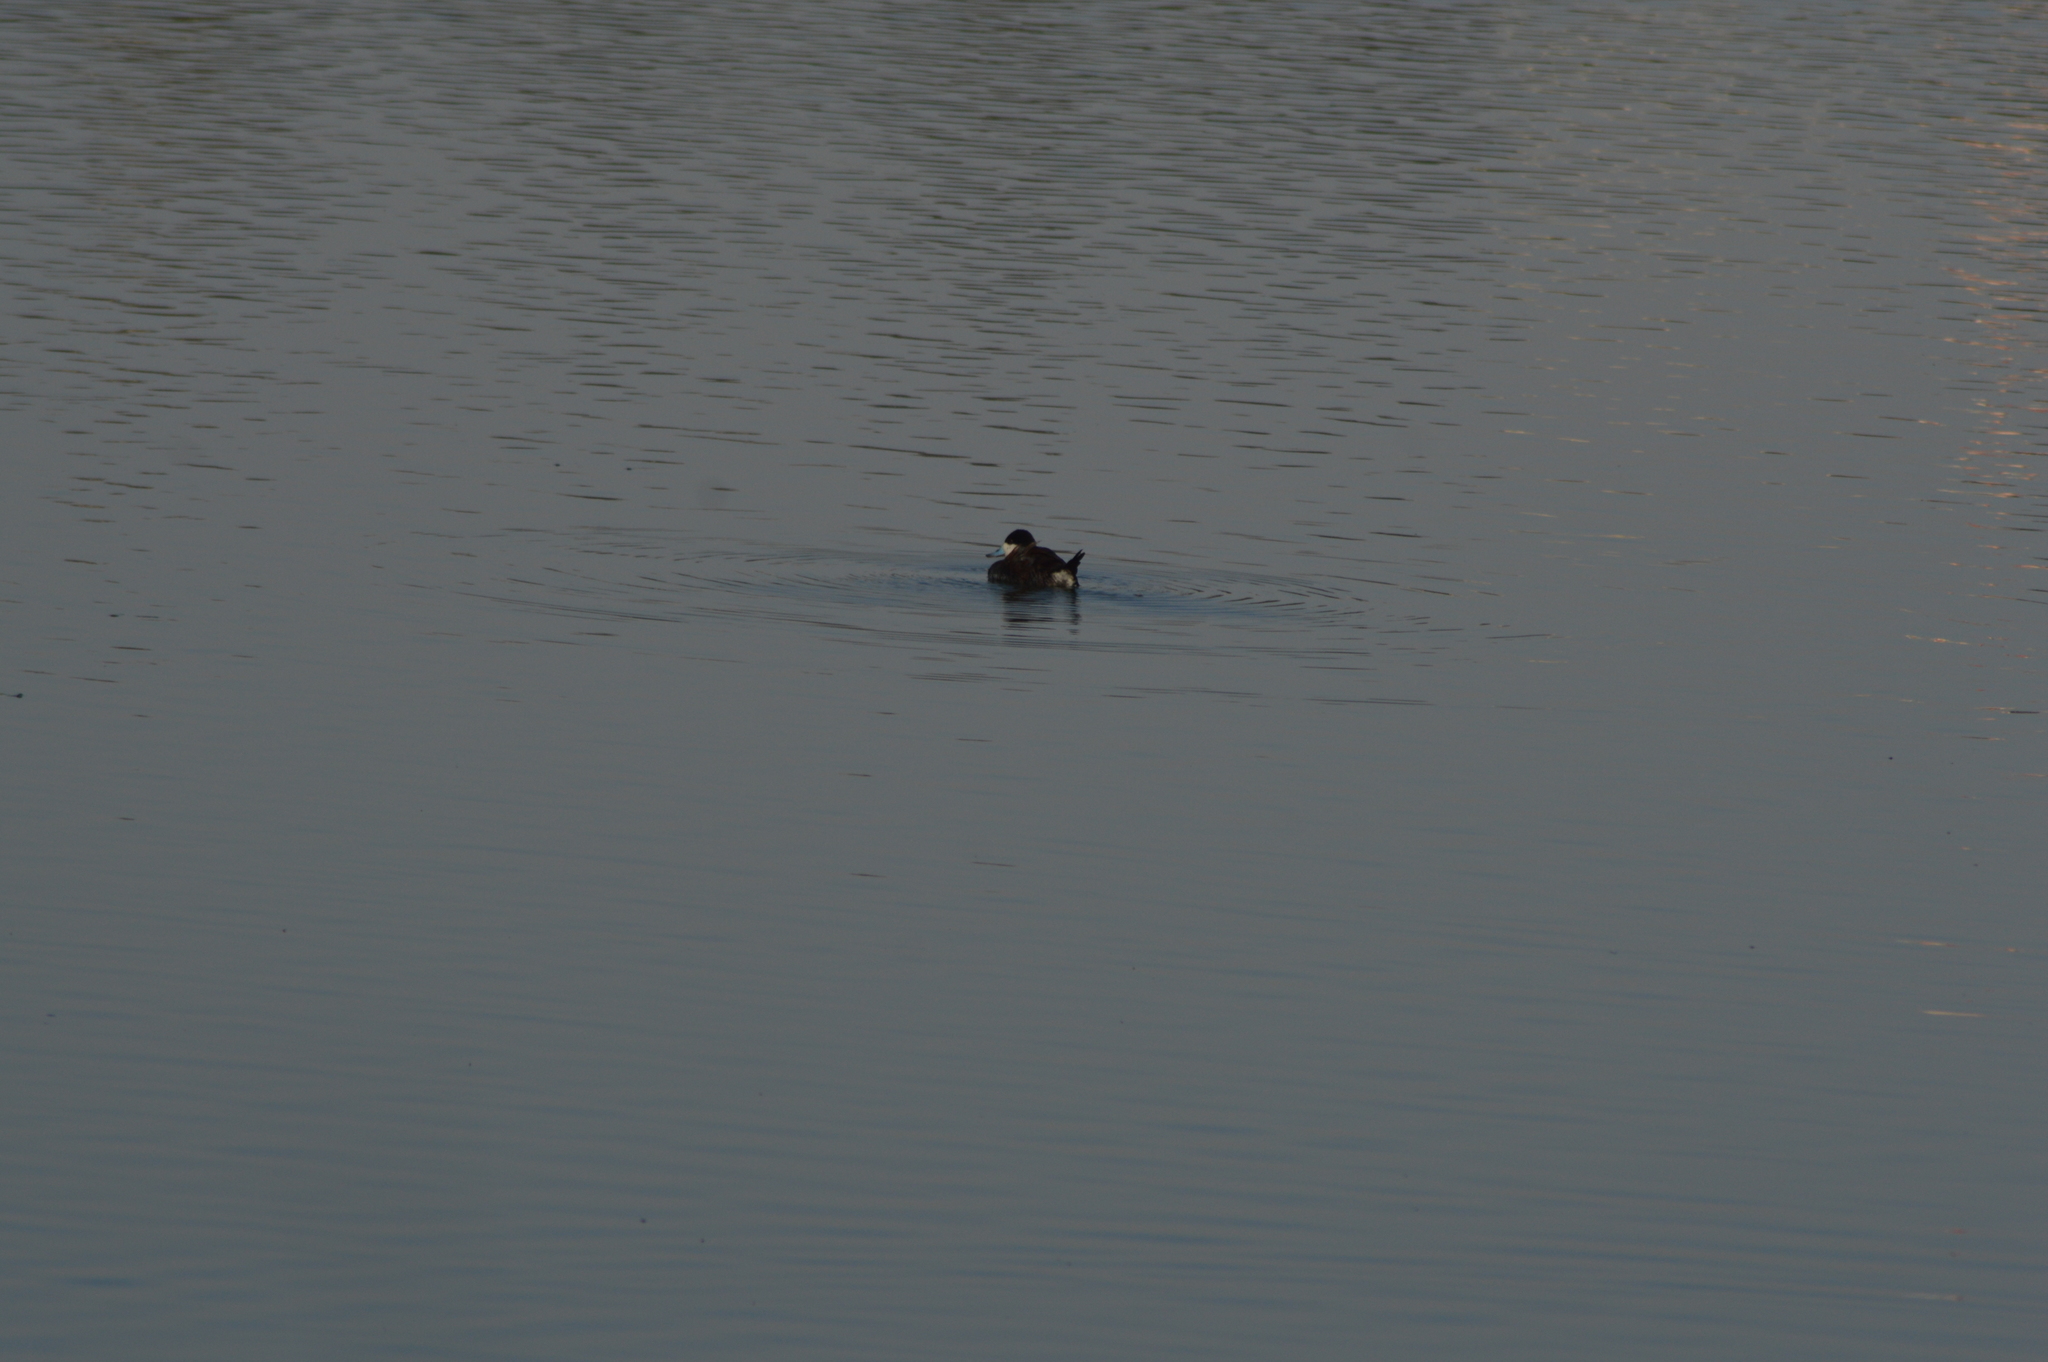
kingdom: Animalia
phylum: Chordata
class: Aves
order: Anseriformes
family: Anatidae
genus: Oxyura
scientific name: Oxyura jamaicensis
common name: Ruddy duck
